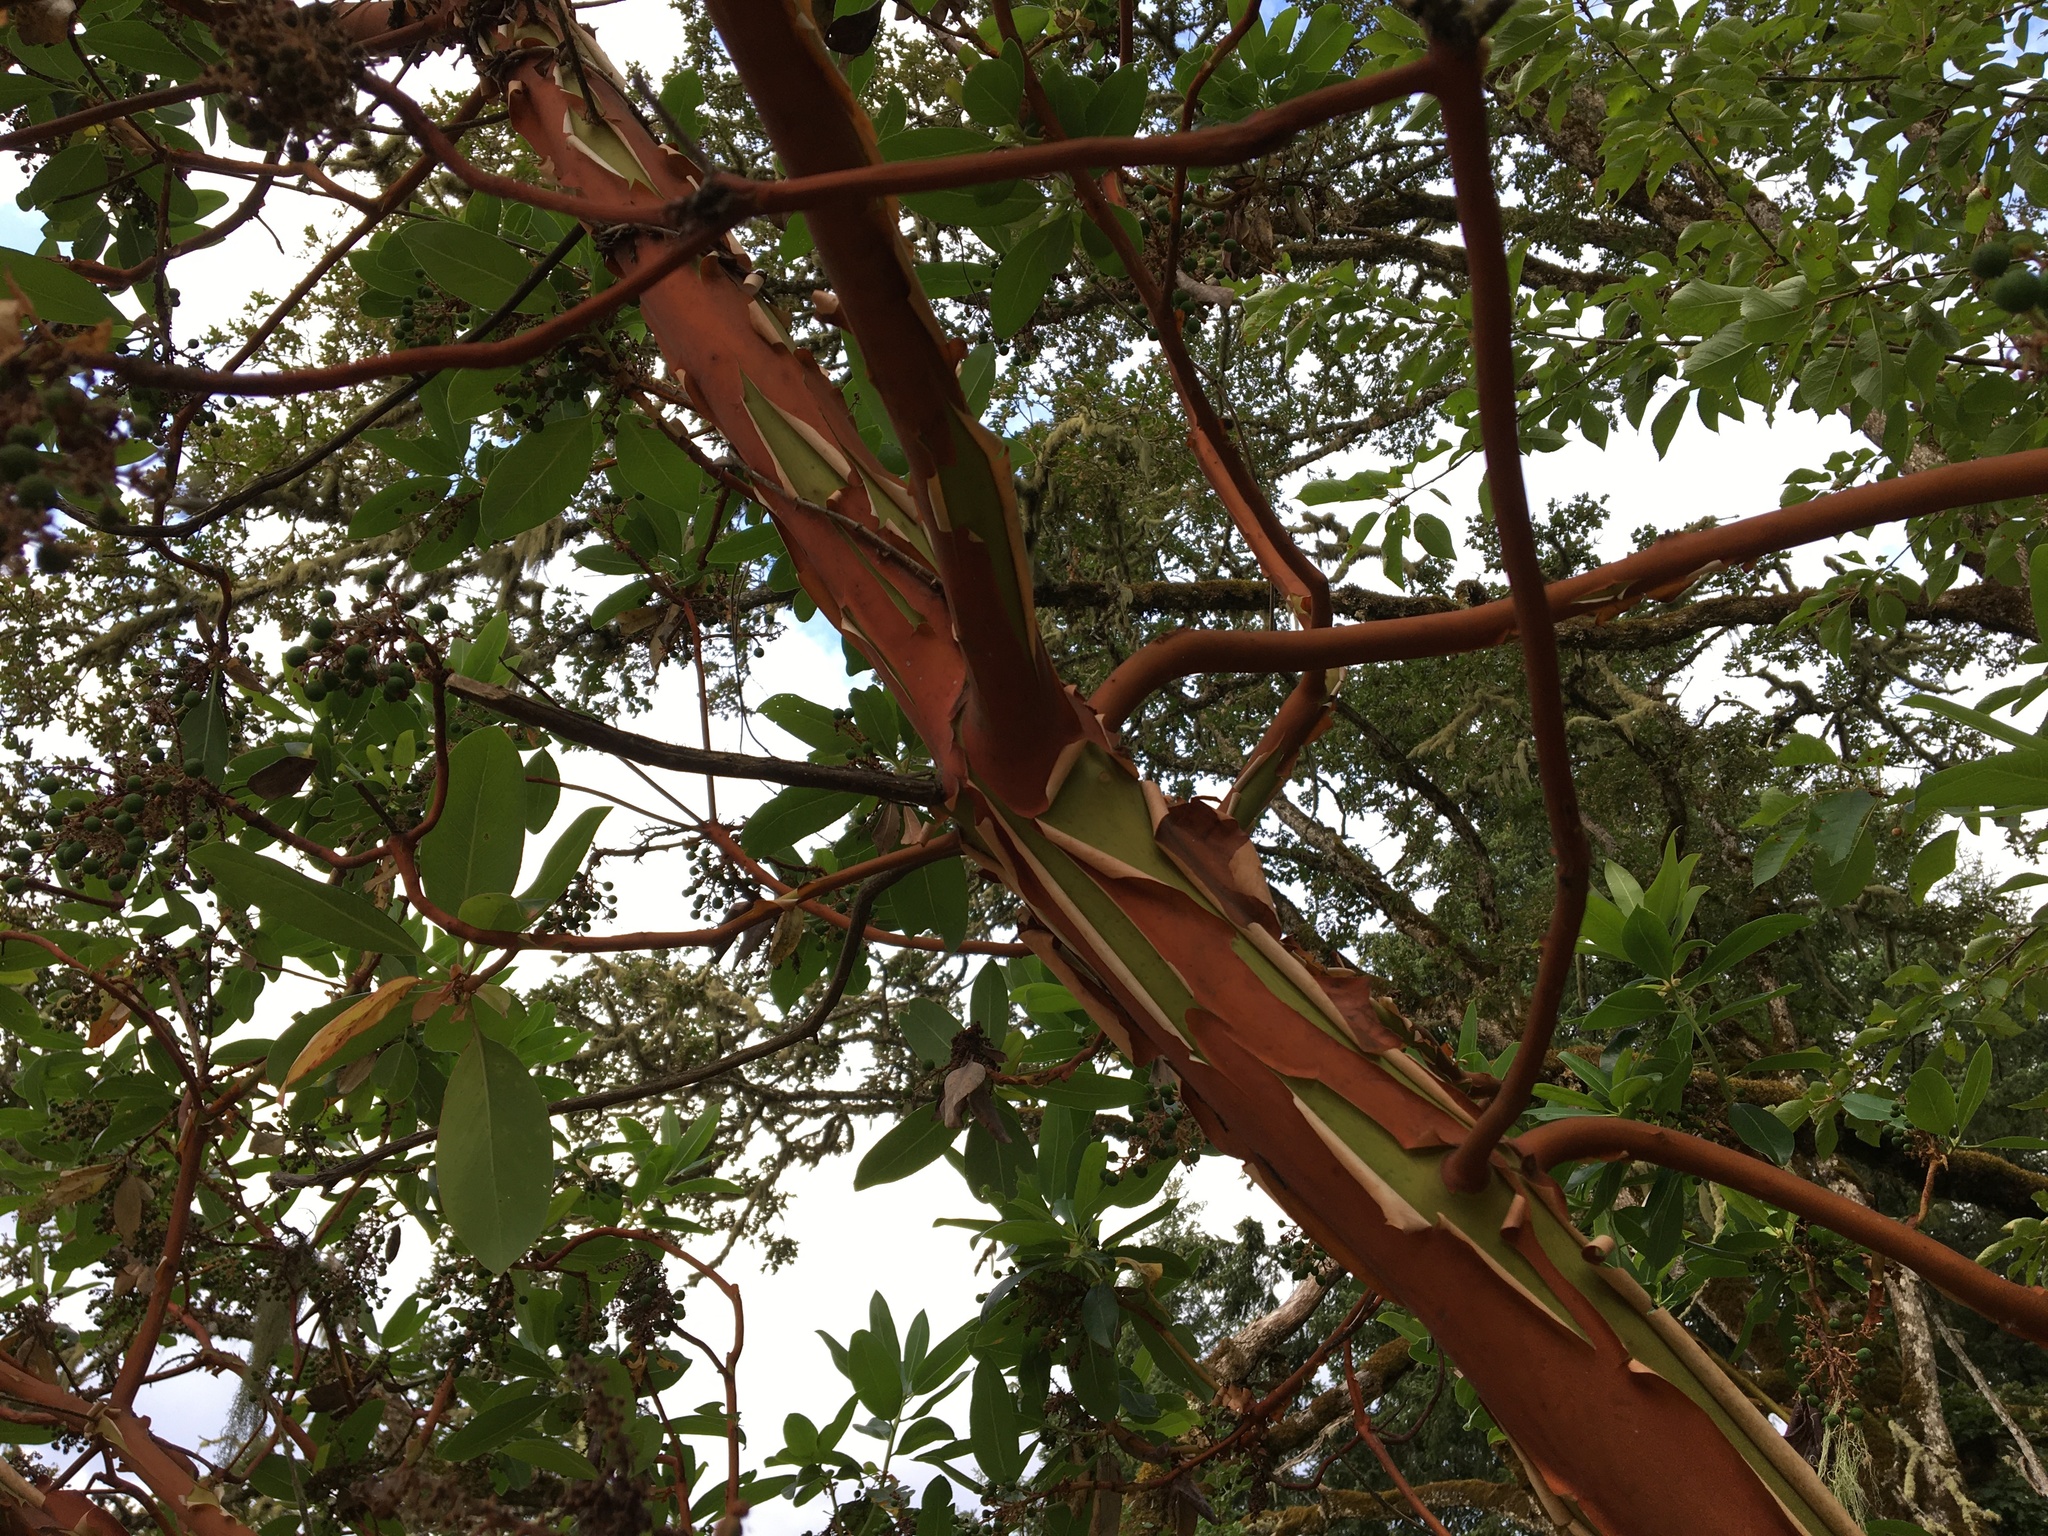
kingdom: Plantae
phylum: Tracheophyta
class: Magnoliopsida
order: Ericales
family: Ericaceae
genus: Arbutus
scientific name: Arbutus menziesii
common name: Pacific madrone
